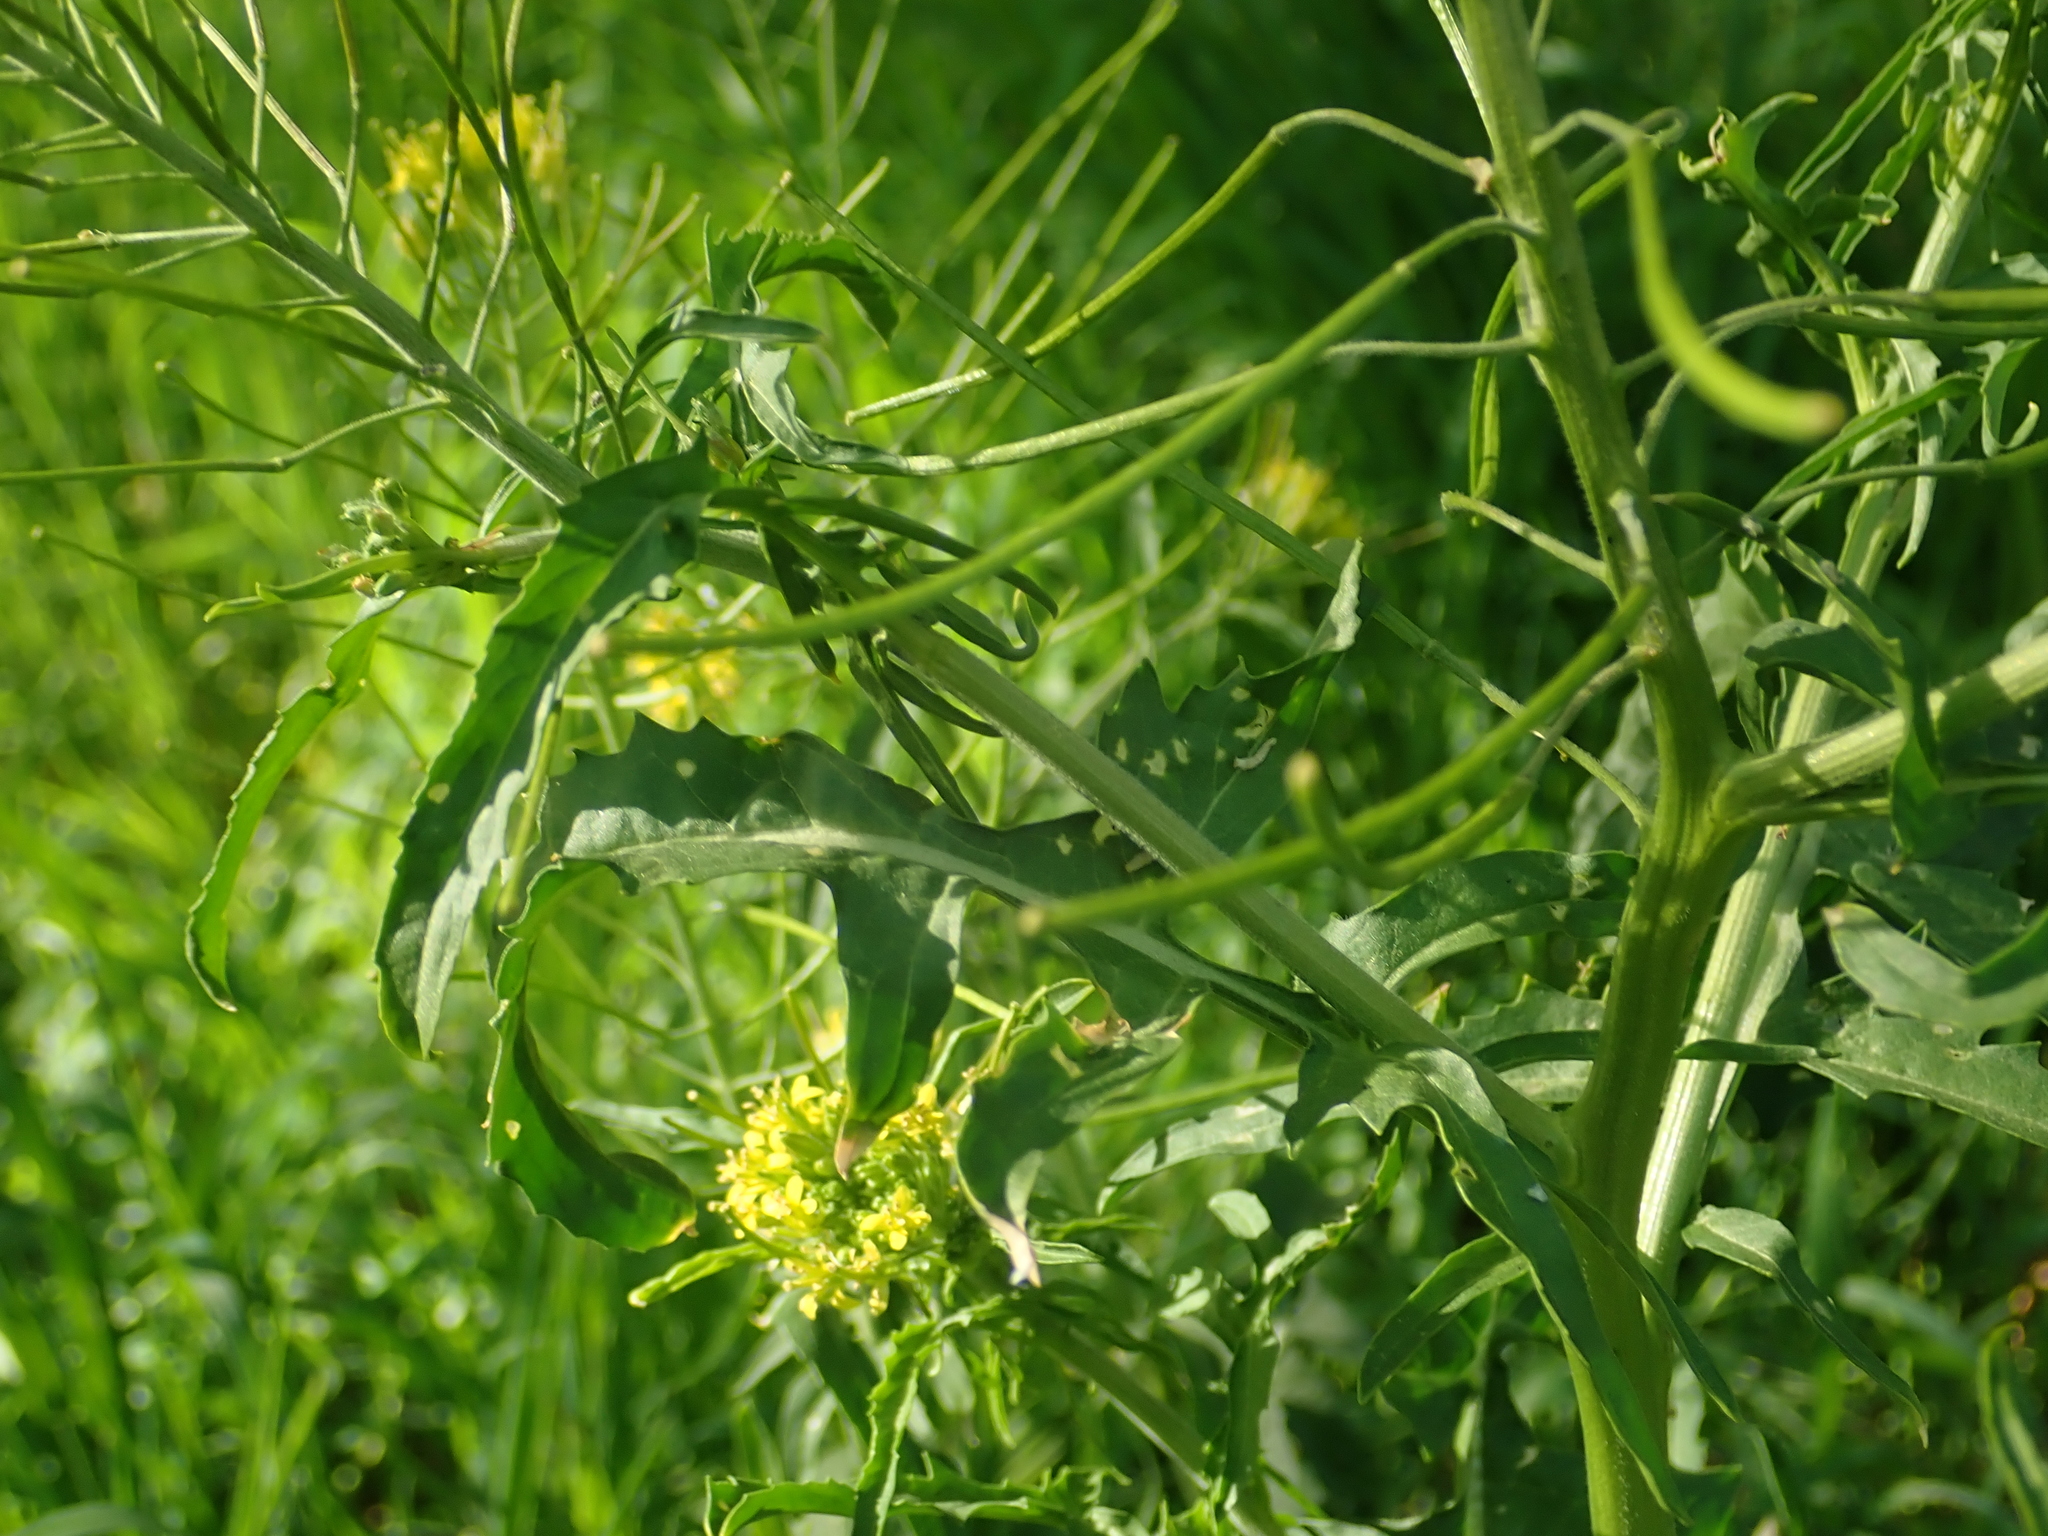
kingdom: Plantae
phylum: Tracheophyta
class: Magnoliopsida
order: Brassicales
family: Brassicaceae
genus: Sisymbrium
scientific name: Sisymbrium irio
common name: London rocket
